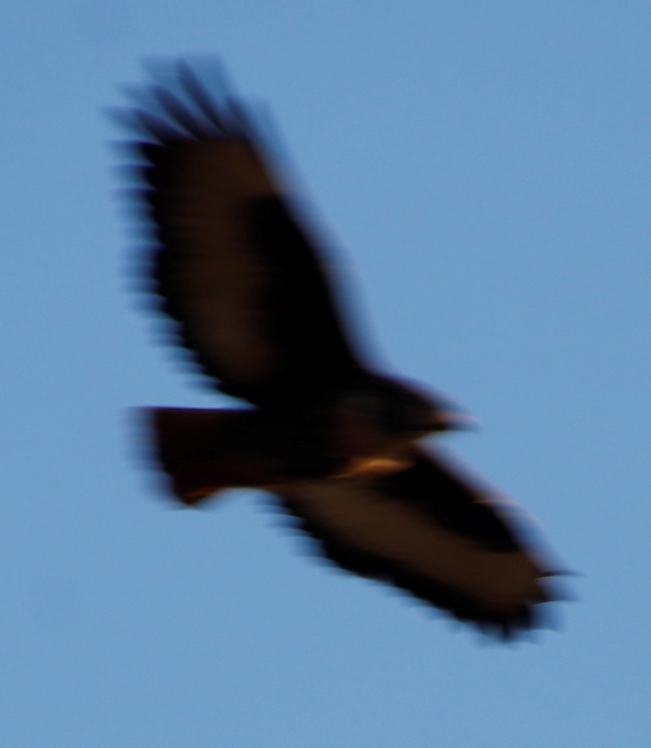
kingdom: Animalia
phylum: Chordata
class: Aves
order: Accipitriformes
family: Accipitridae
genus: Buteo
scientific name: Buteo rufofuscus
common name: Jackal buzzard
